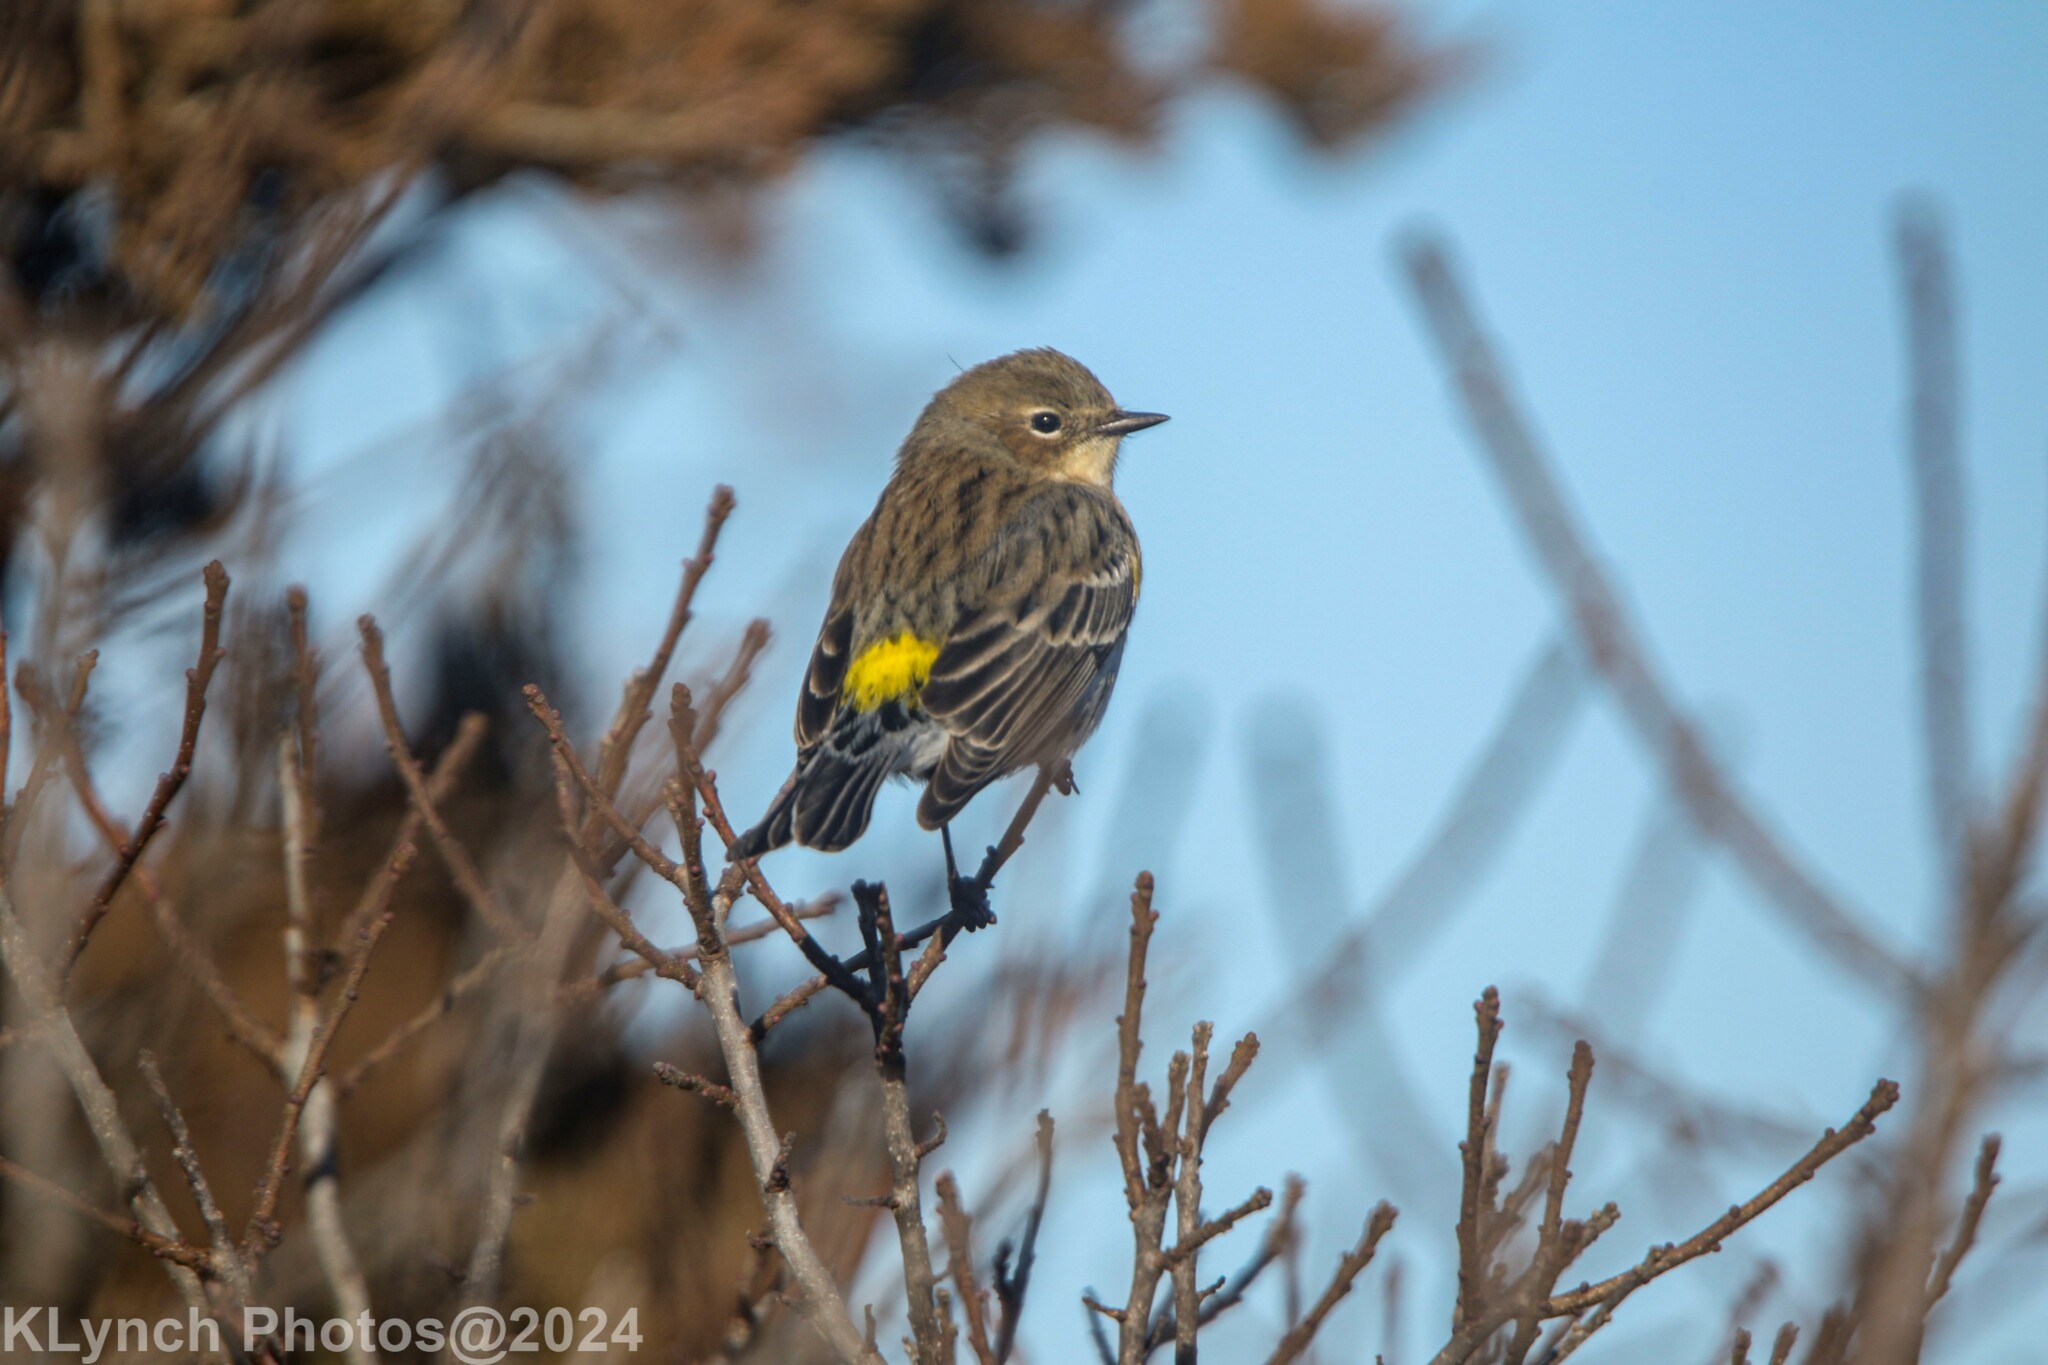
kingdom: Animalia
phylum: Chordata
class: Aves
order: Passeriformes
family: Parulidae
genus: Setophaga
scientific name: Setophaga coronata
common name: Myrtle warbler
